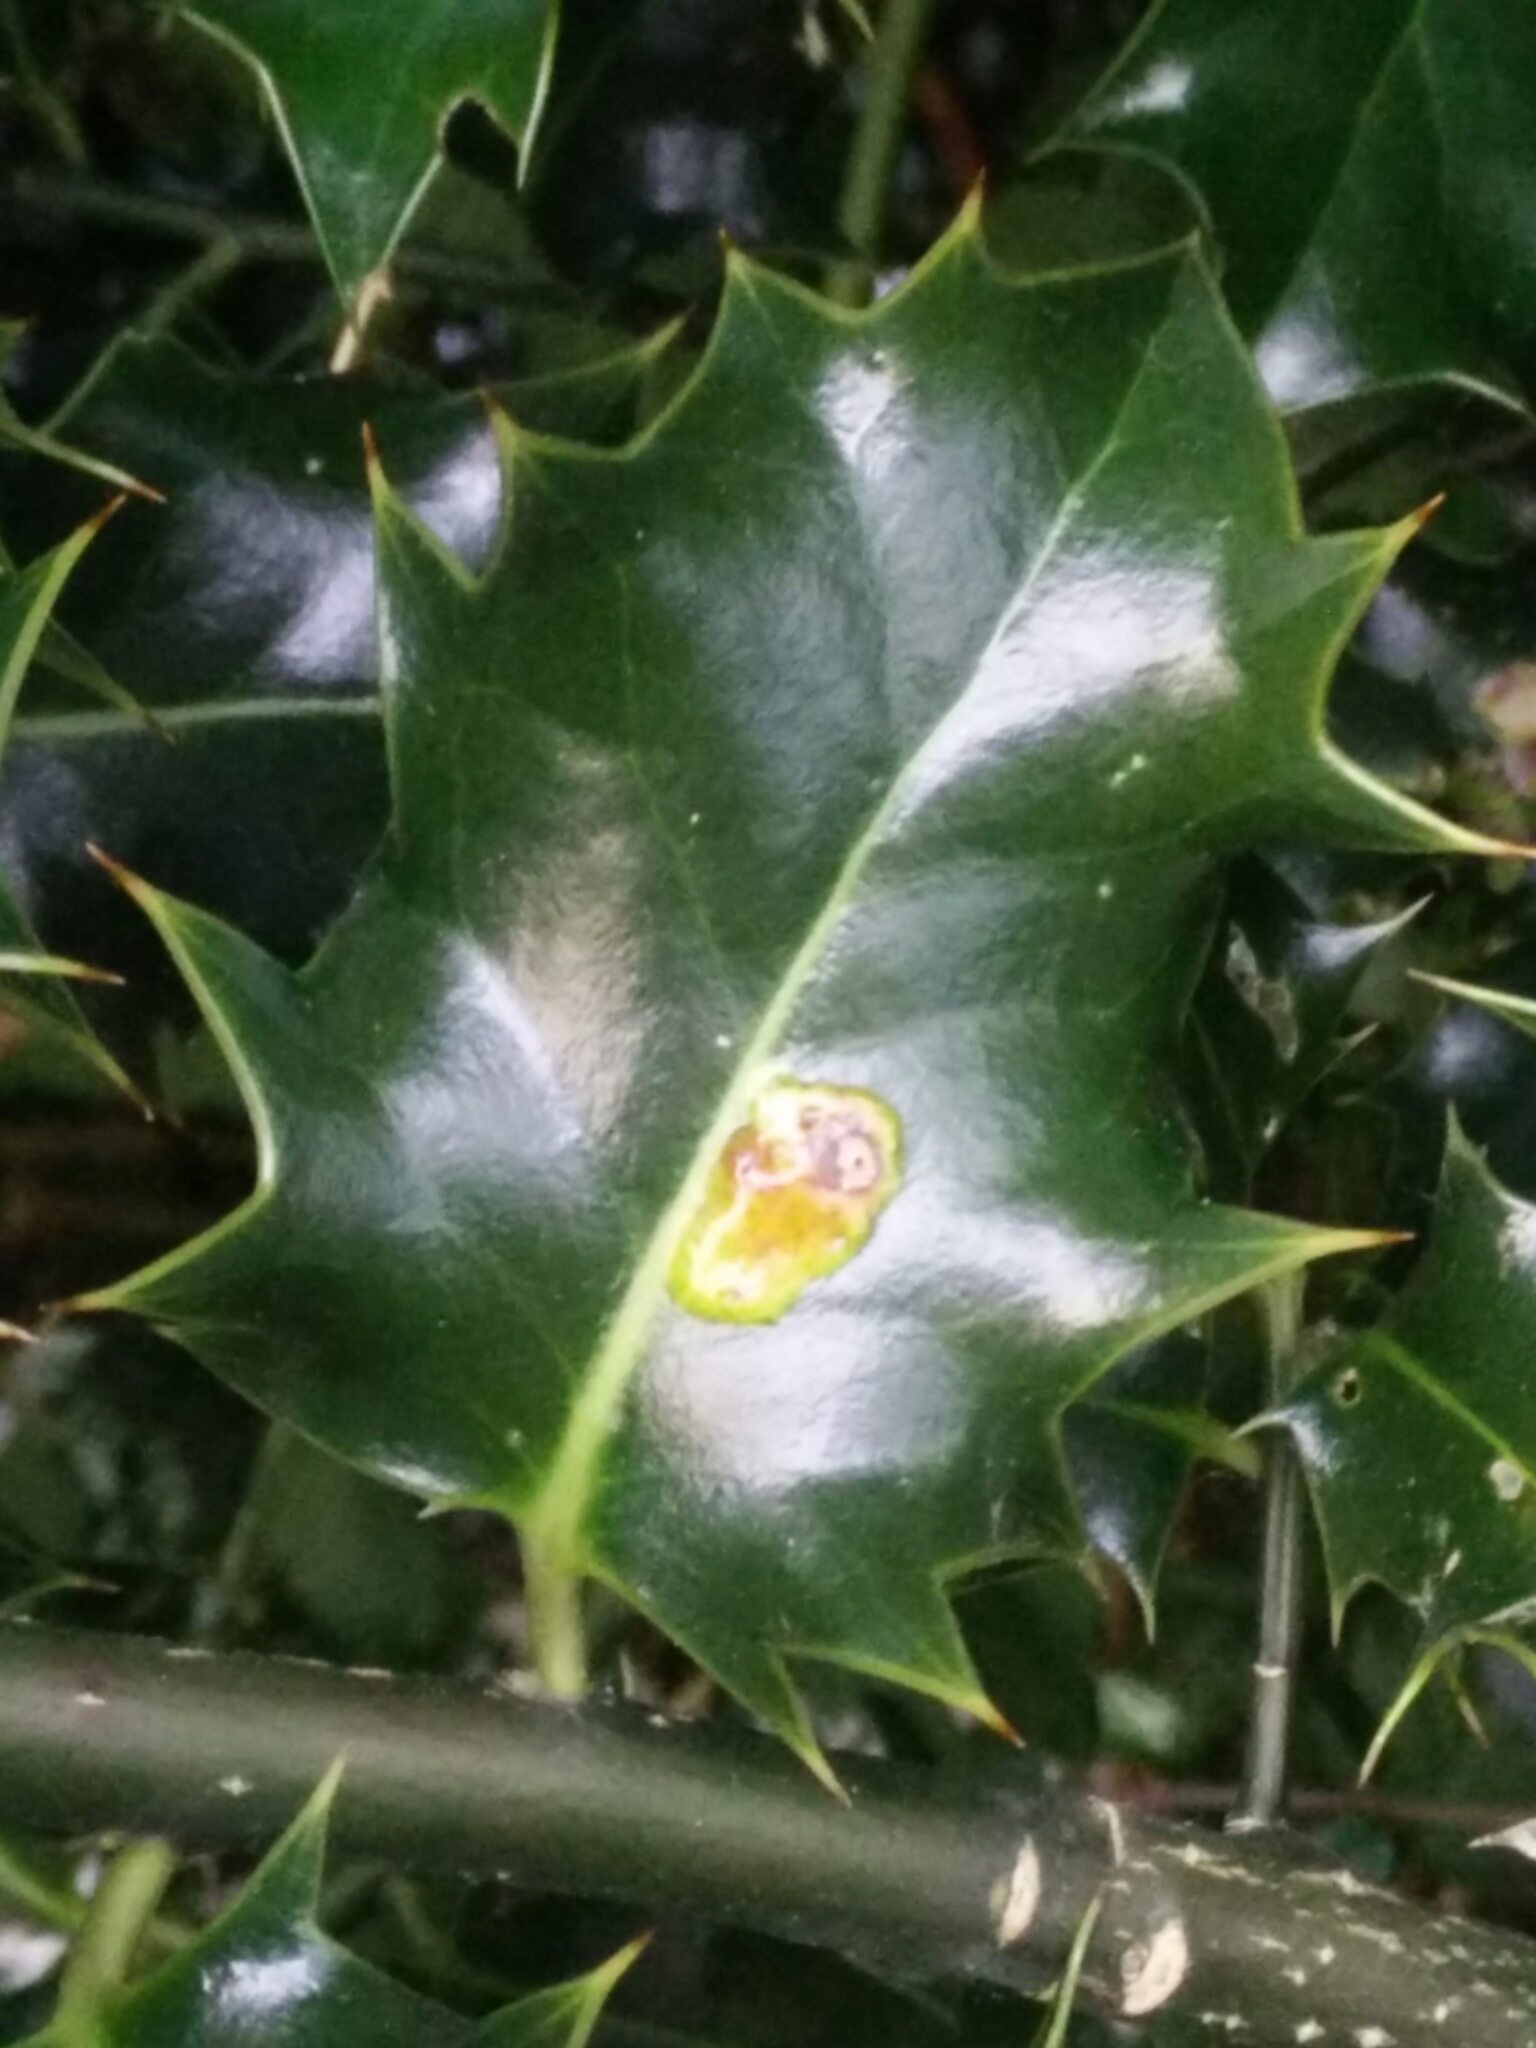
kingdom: Animalia
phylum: Arthropoda
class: Insecta
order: Diptera
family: Agromyzidae
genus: Phytomyza
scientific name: Phytomyza ilicis
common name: Holly leafminer
